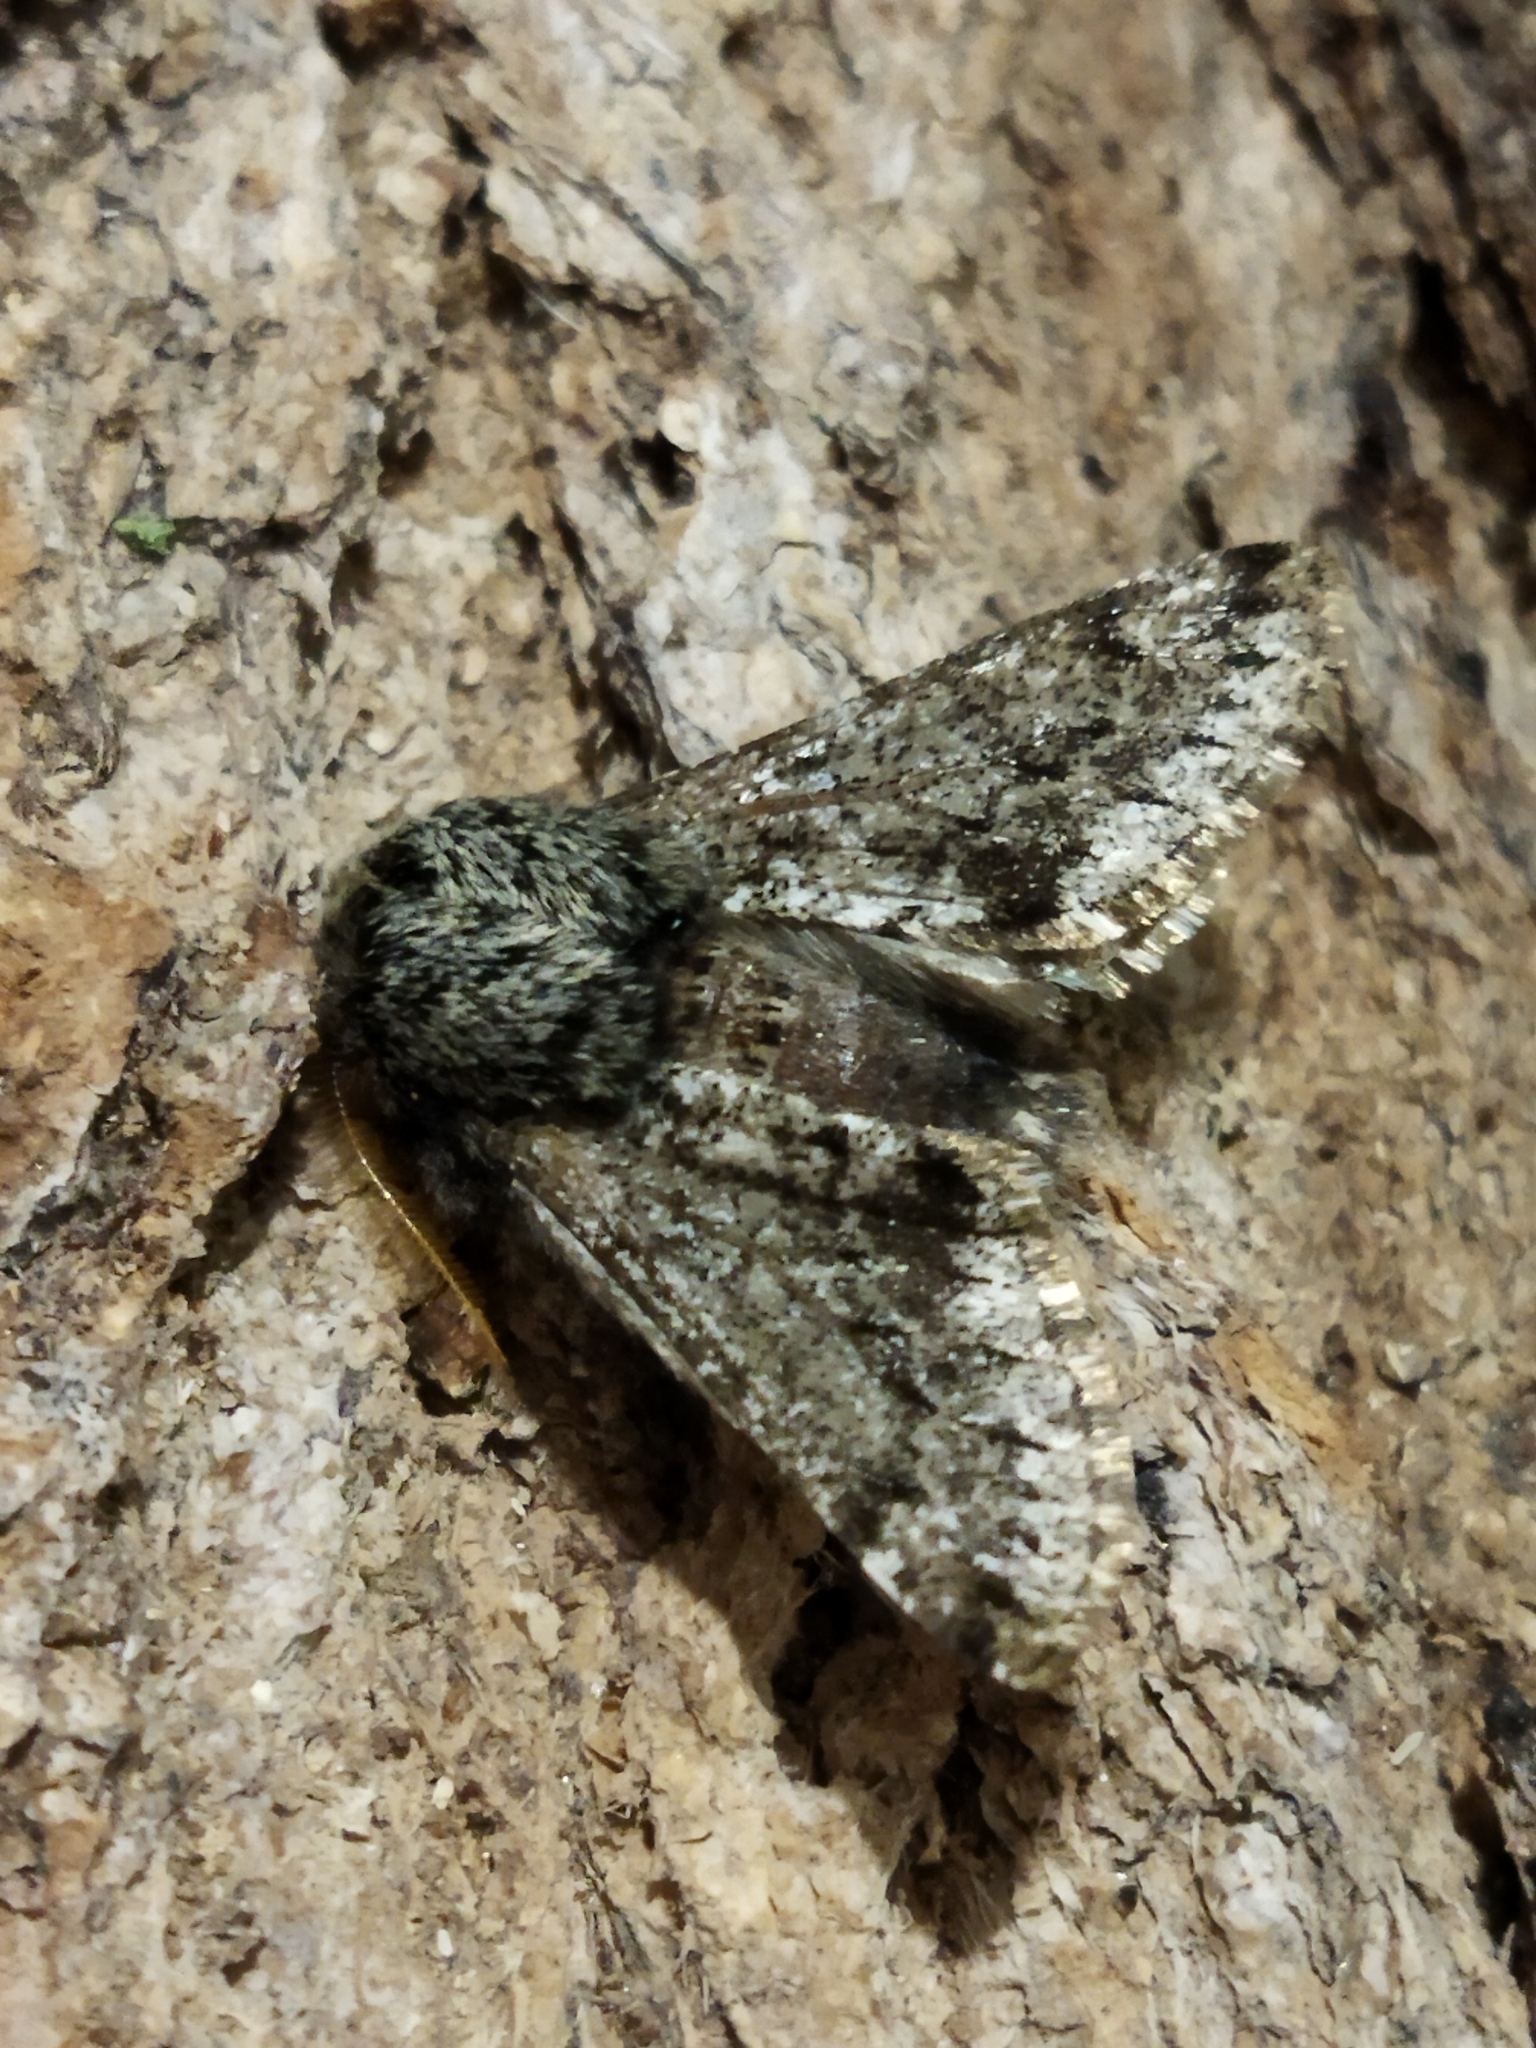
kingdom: Animalia
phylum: Arthropoda
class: Insecta
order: Lepidoptera
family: Geometridae
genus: Apocheima
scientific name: Apocheima hispidaria
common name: Small brindled beauty
